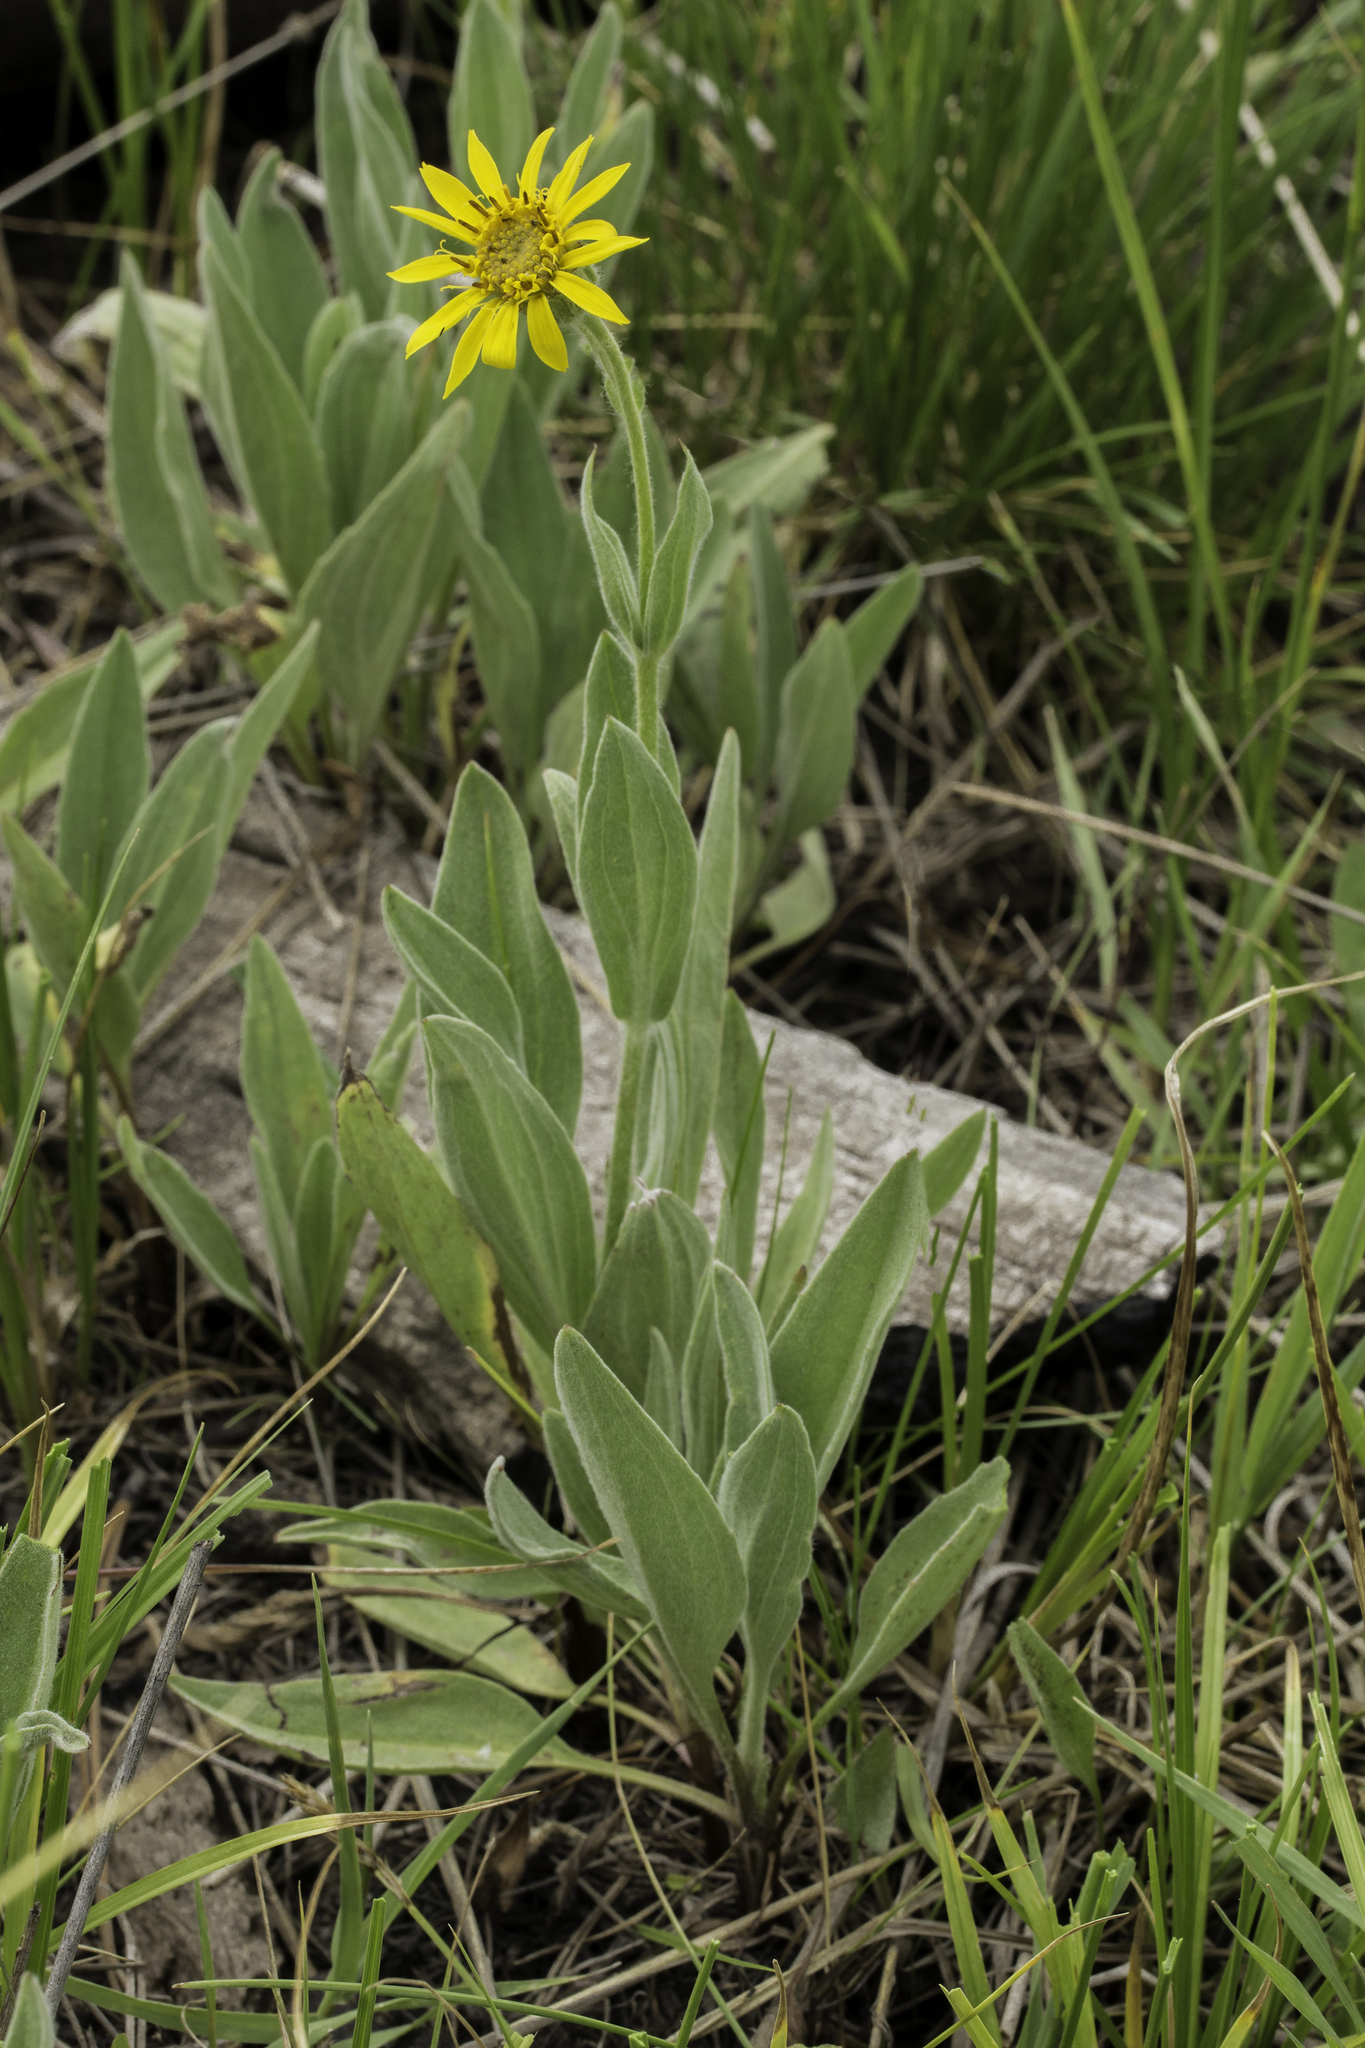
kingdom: Plantae
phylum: Tracheophyta
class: Magnoliopsida
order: Asterales
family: Asteraceae
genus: Arnica
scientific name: Arnica chamissonis
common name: Leafy arnica
